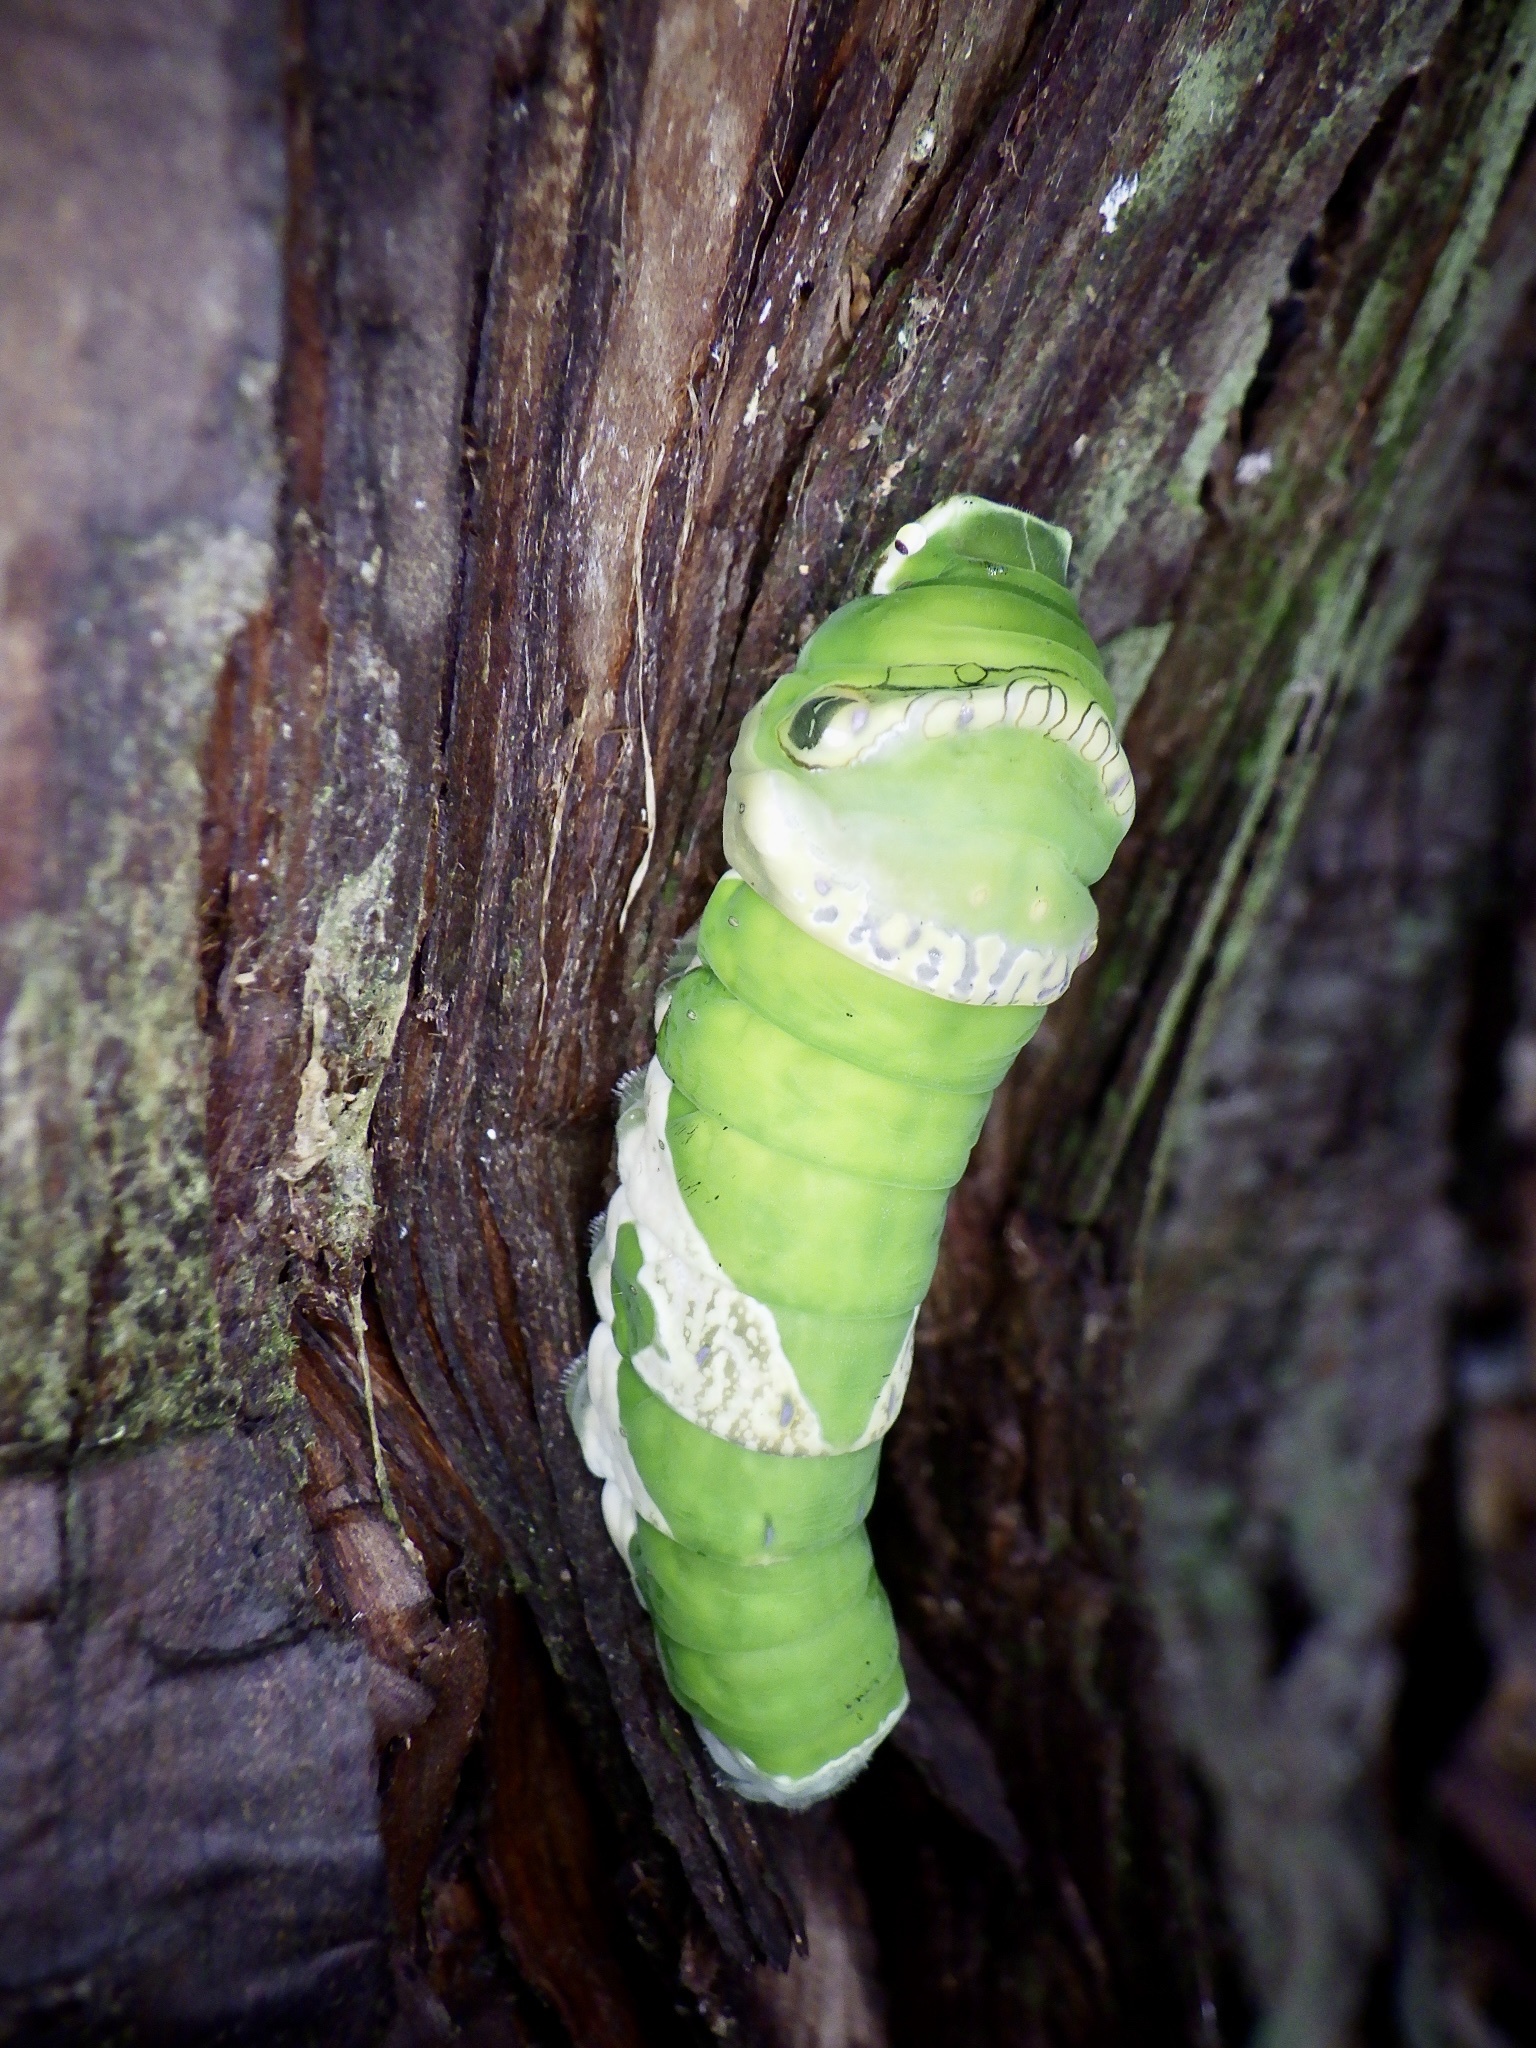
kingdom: Animalia
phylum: Arthropoda
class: Insecta
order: Lepidoptera
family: Papilionidae
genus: Papilio
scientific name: Papilio memnon
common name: Great mormon
